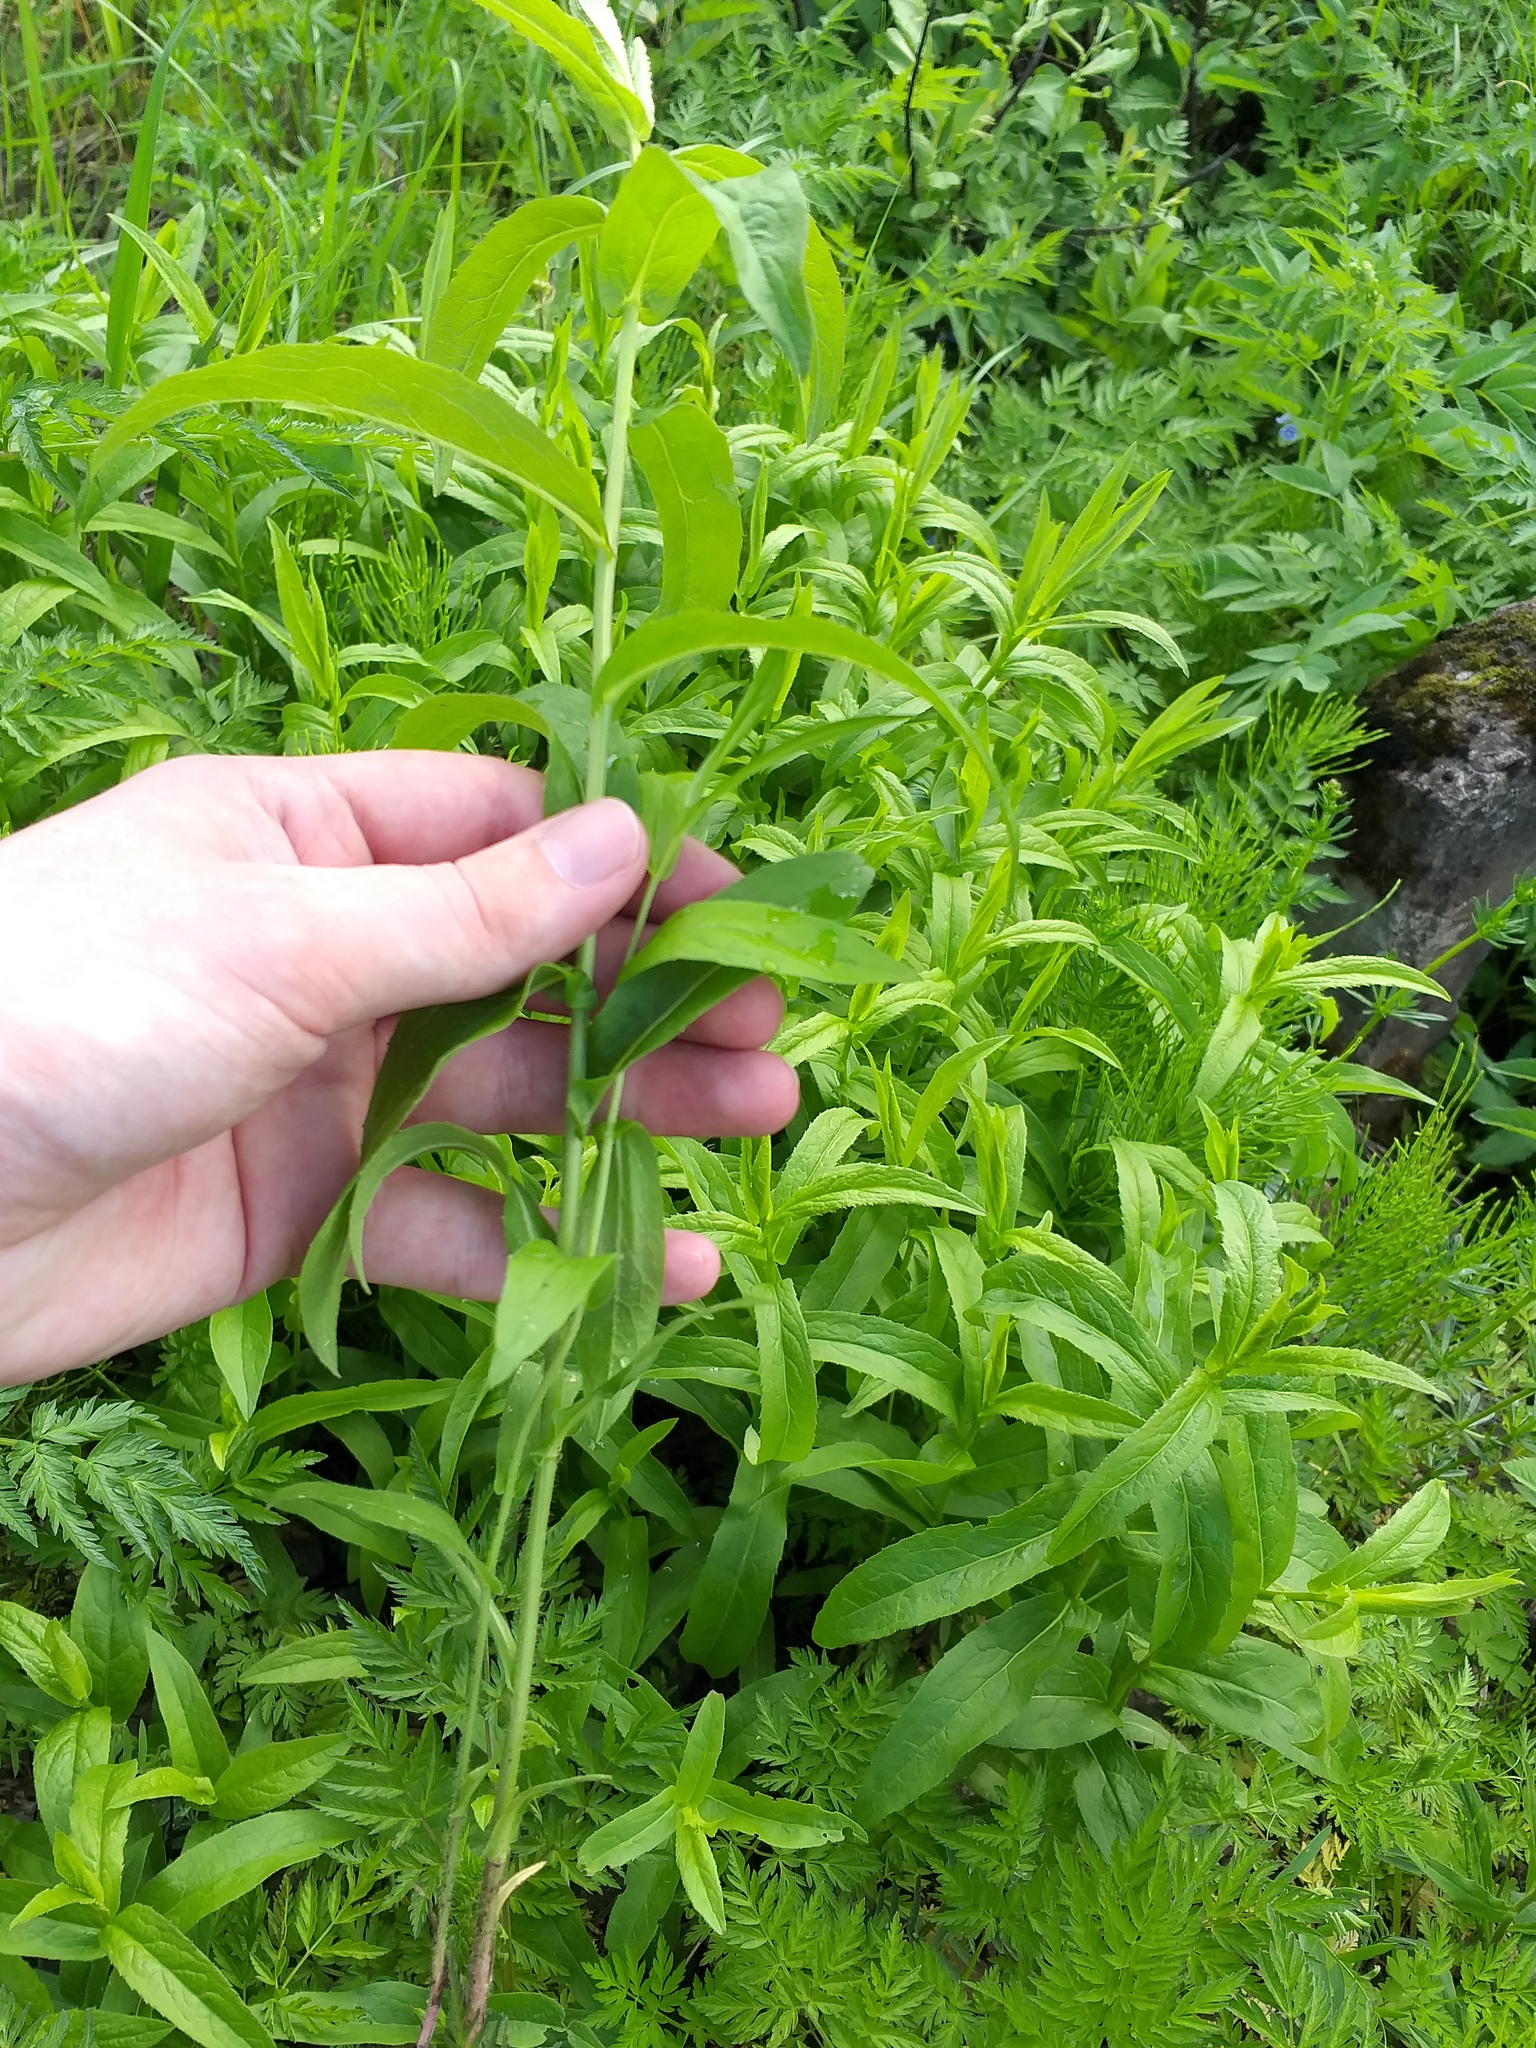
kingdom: Plantae
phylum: Tracheophyta
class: Magnoliopsida
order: Asterales
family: Asteraceae
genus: Pentanema
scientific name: Pentanema salicinum
